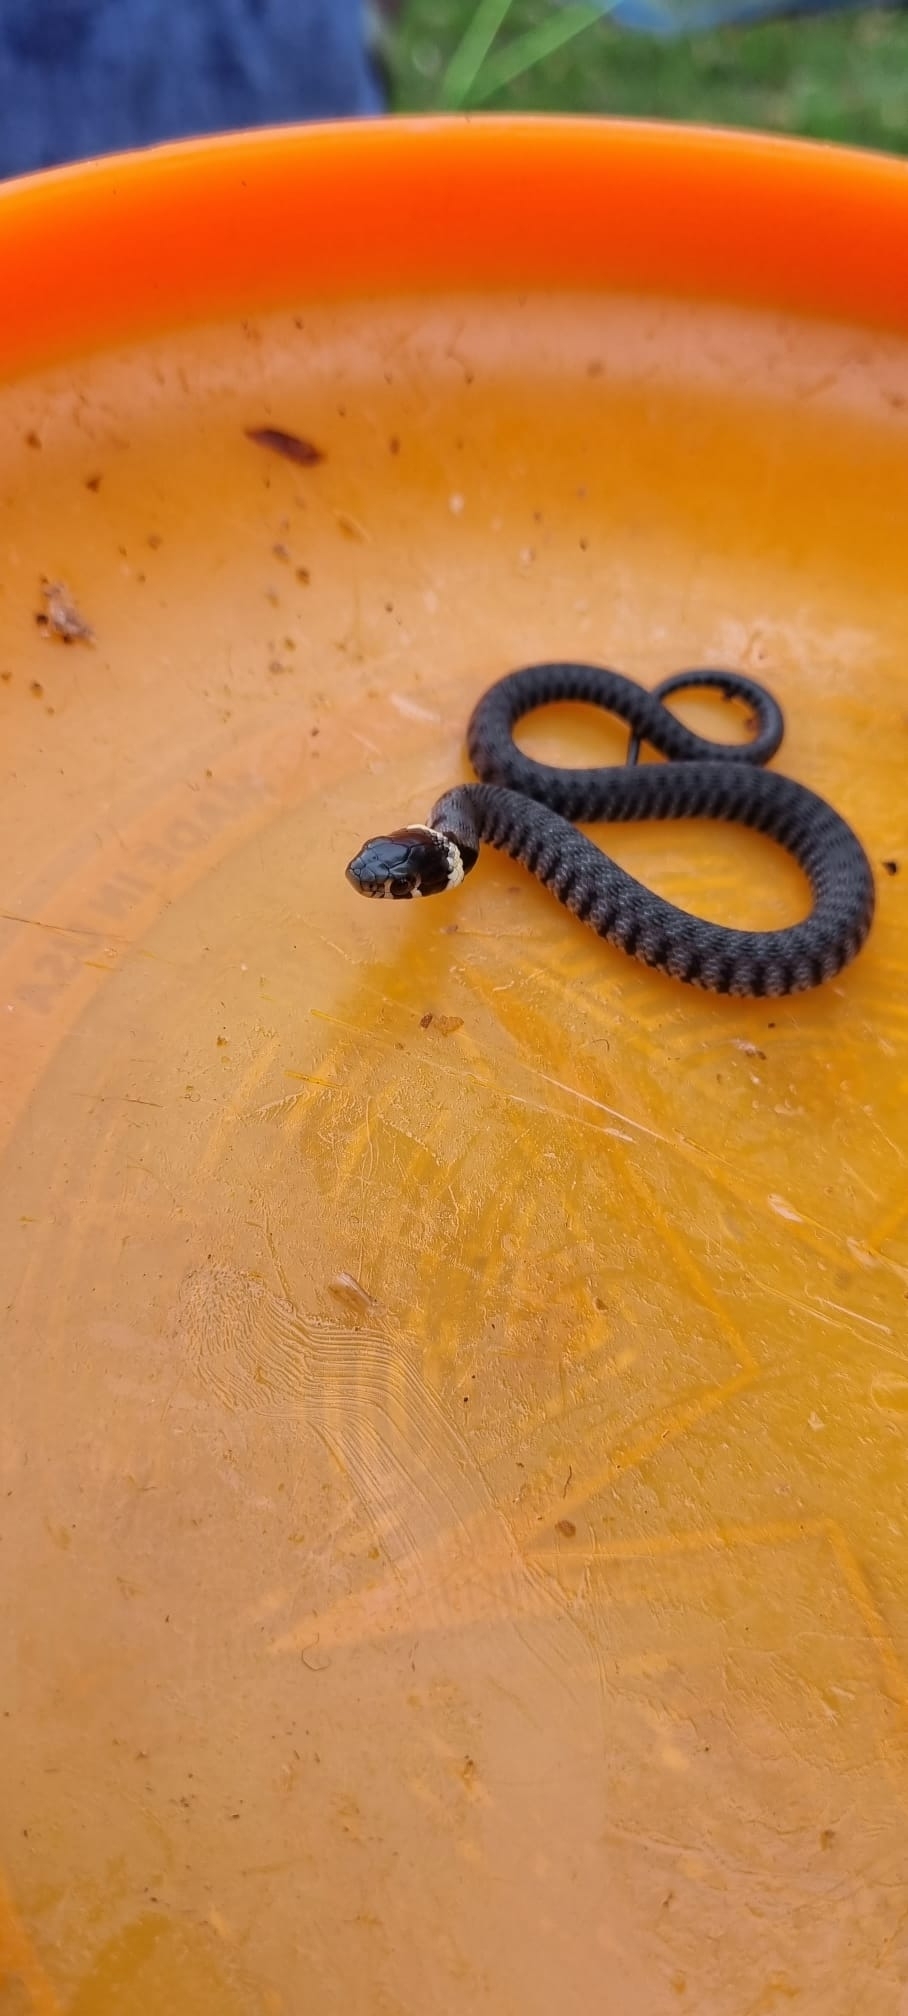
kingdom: Animalia
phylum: Chordata
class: Squamata
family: Colubridae
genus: Natrix
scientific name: Natrix helvetica
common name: Banded grass snake
